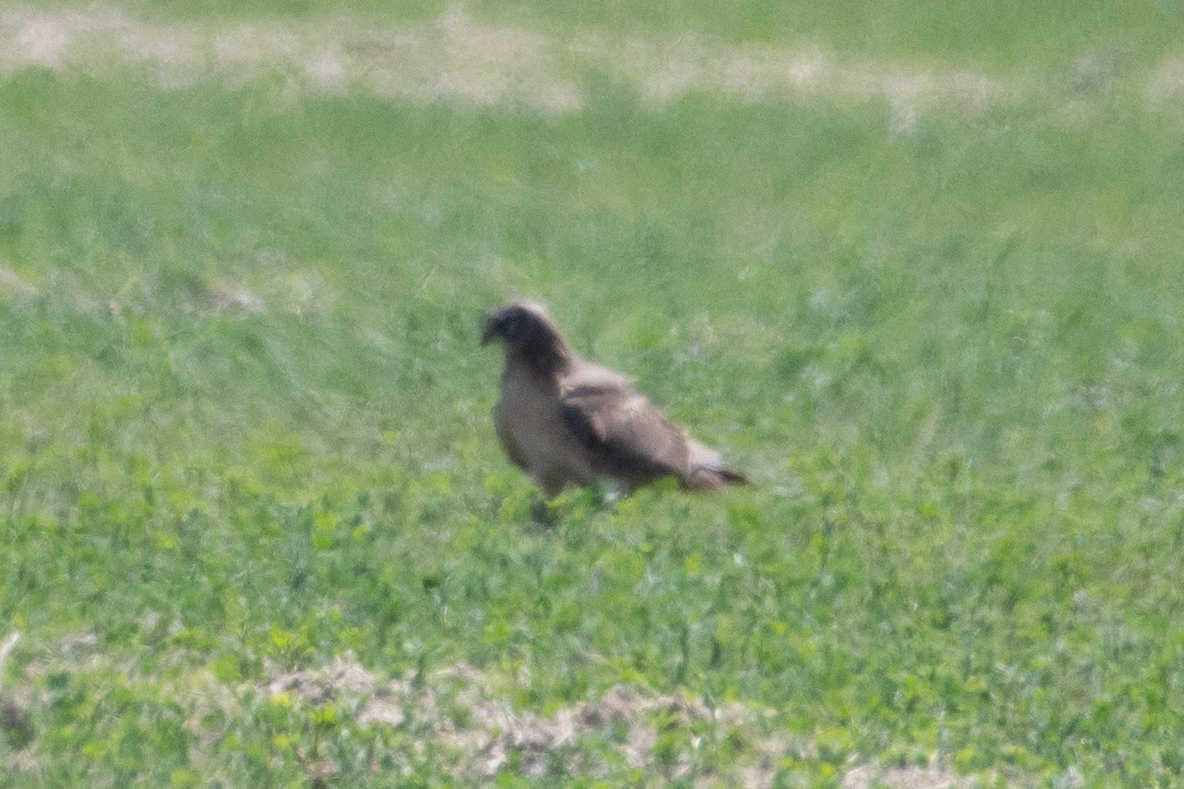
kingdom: Animalia
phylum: Chordata
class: Aves
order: Accipitriformes
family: Accipitridae
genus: Circus
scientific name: Circus cyaneus
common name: Hen harrier
